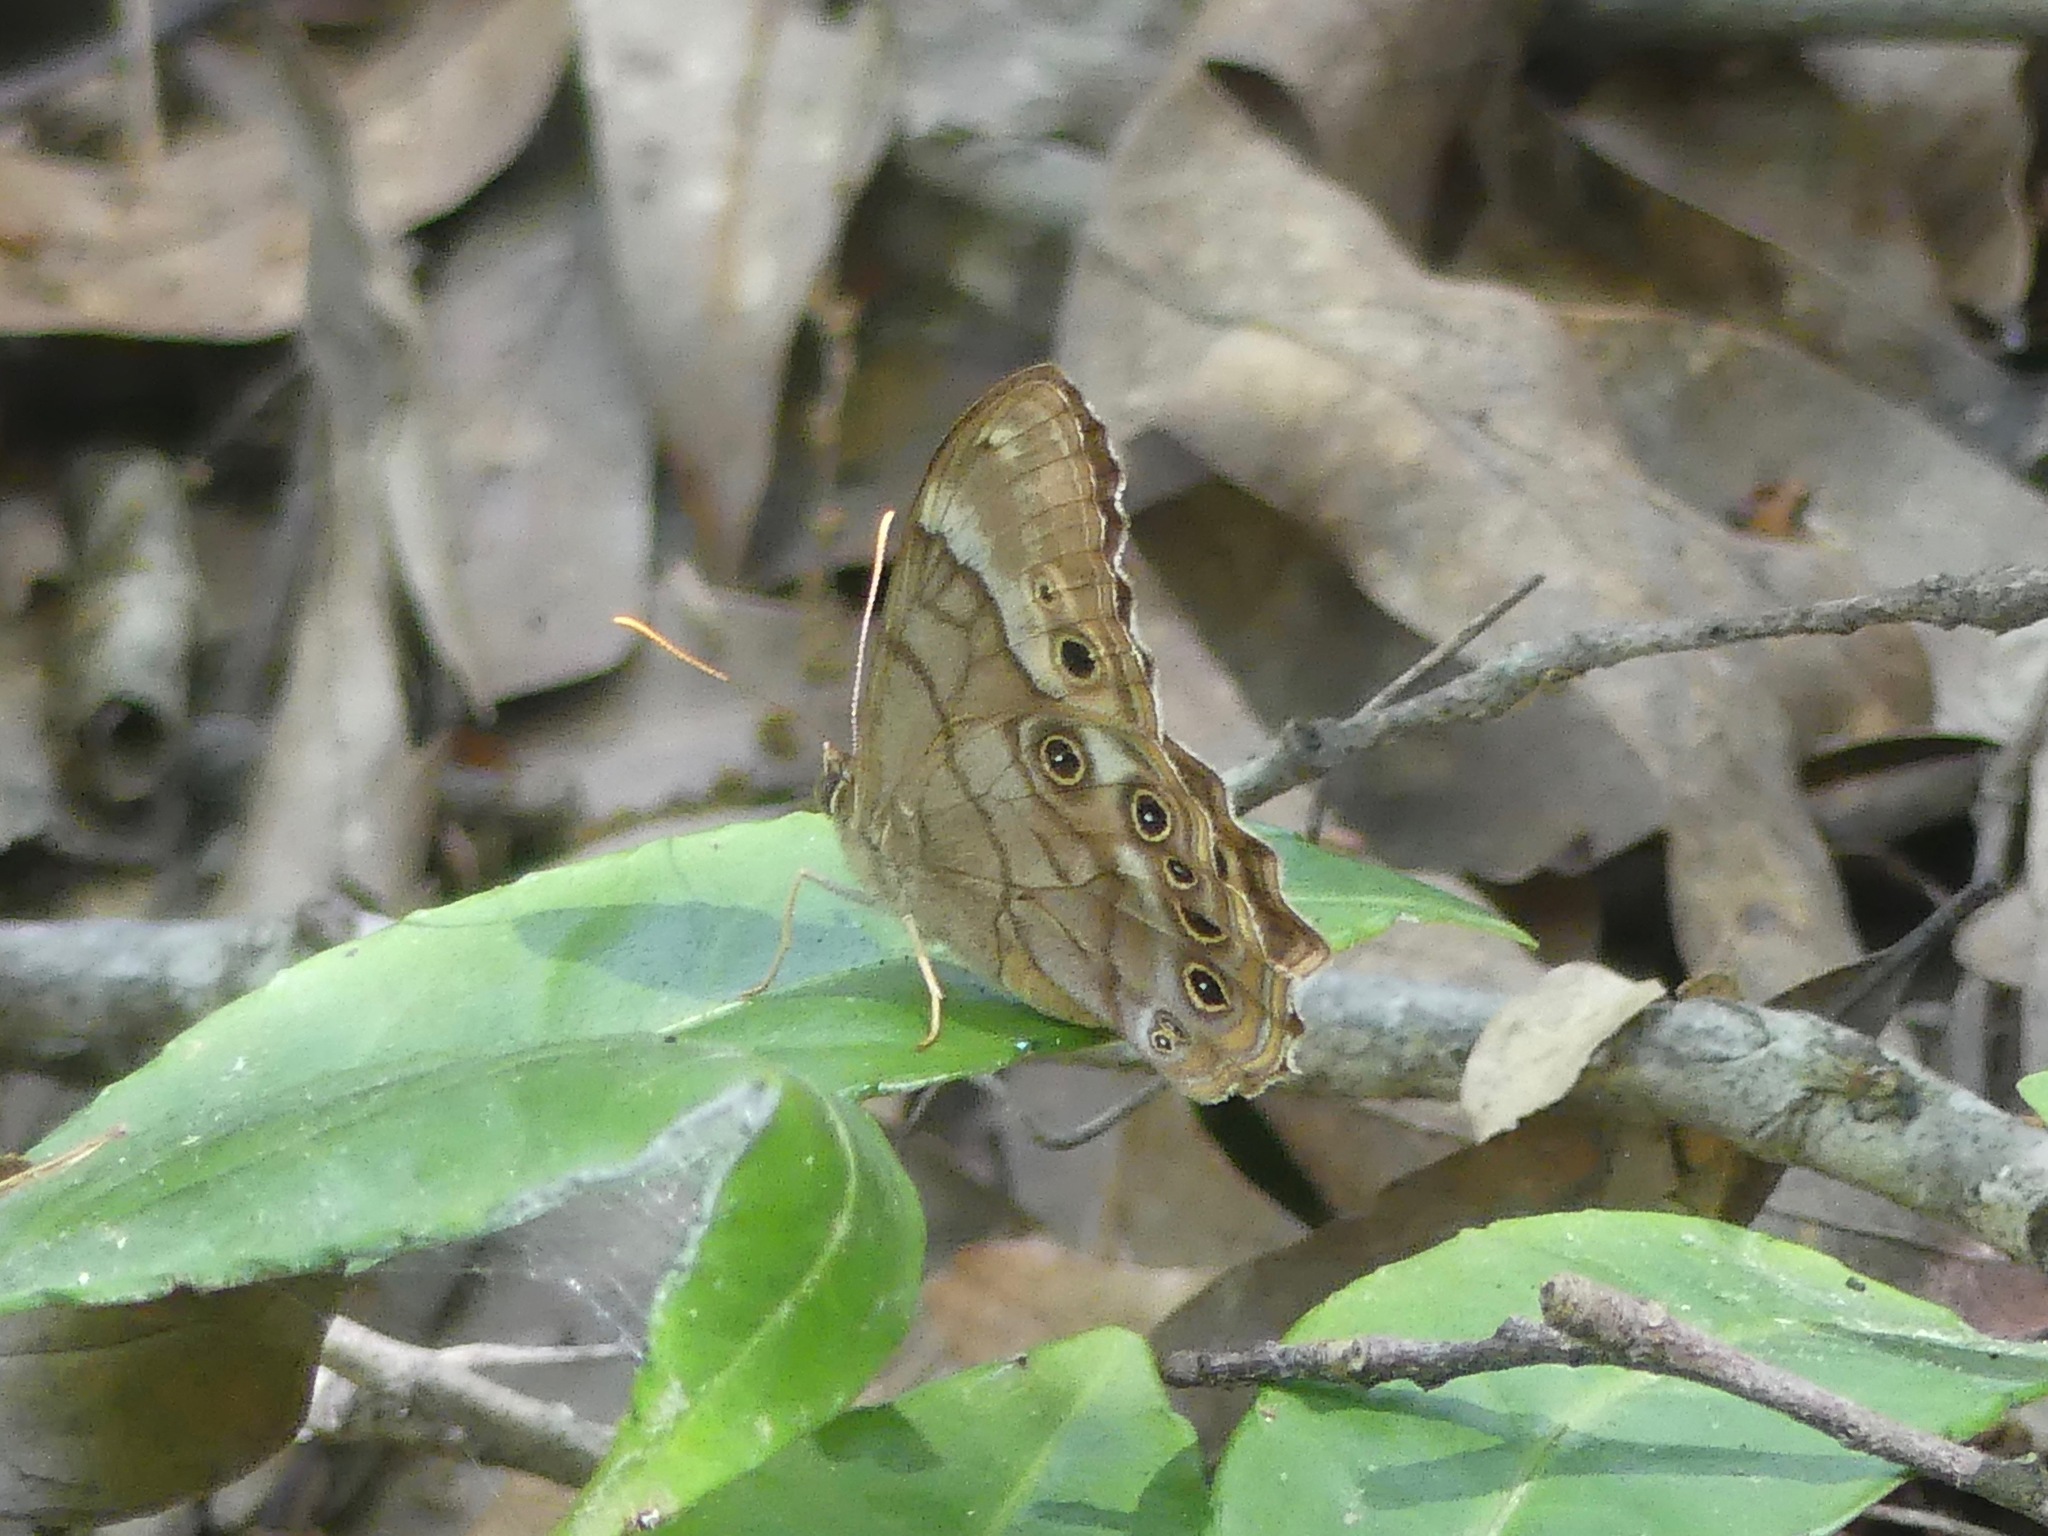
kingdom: Animalia
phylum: Arthropoda
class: Insecta
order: Lepidoptera
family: Nymphalidae
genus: Enodia
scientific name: Enodia portlandia
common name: Southern pearly-eye
